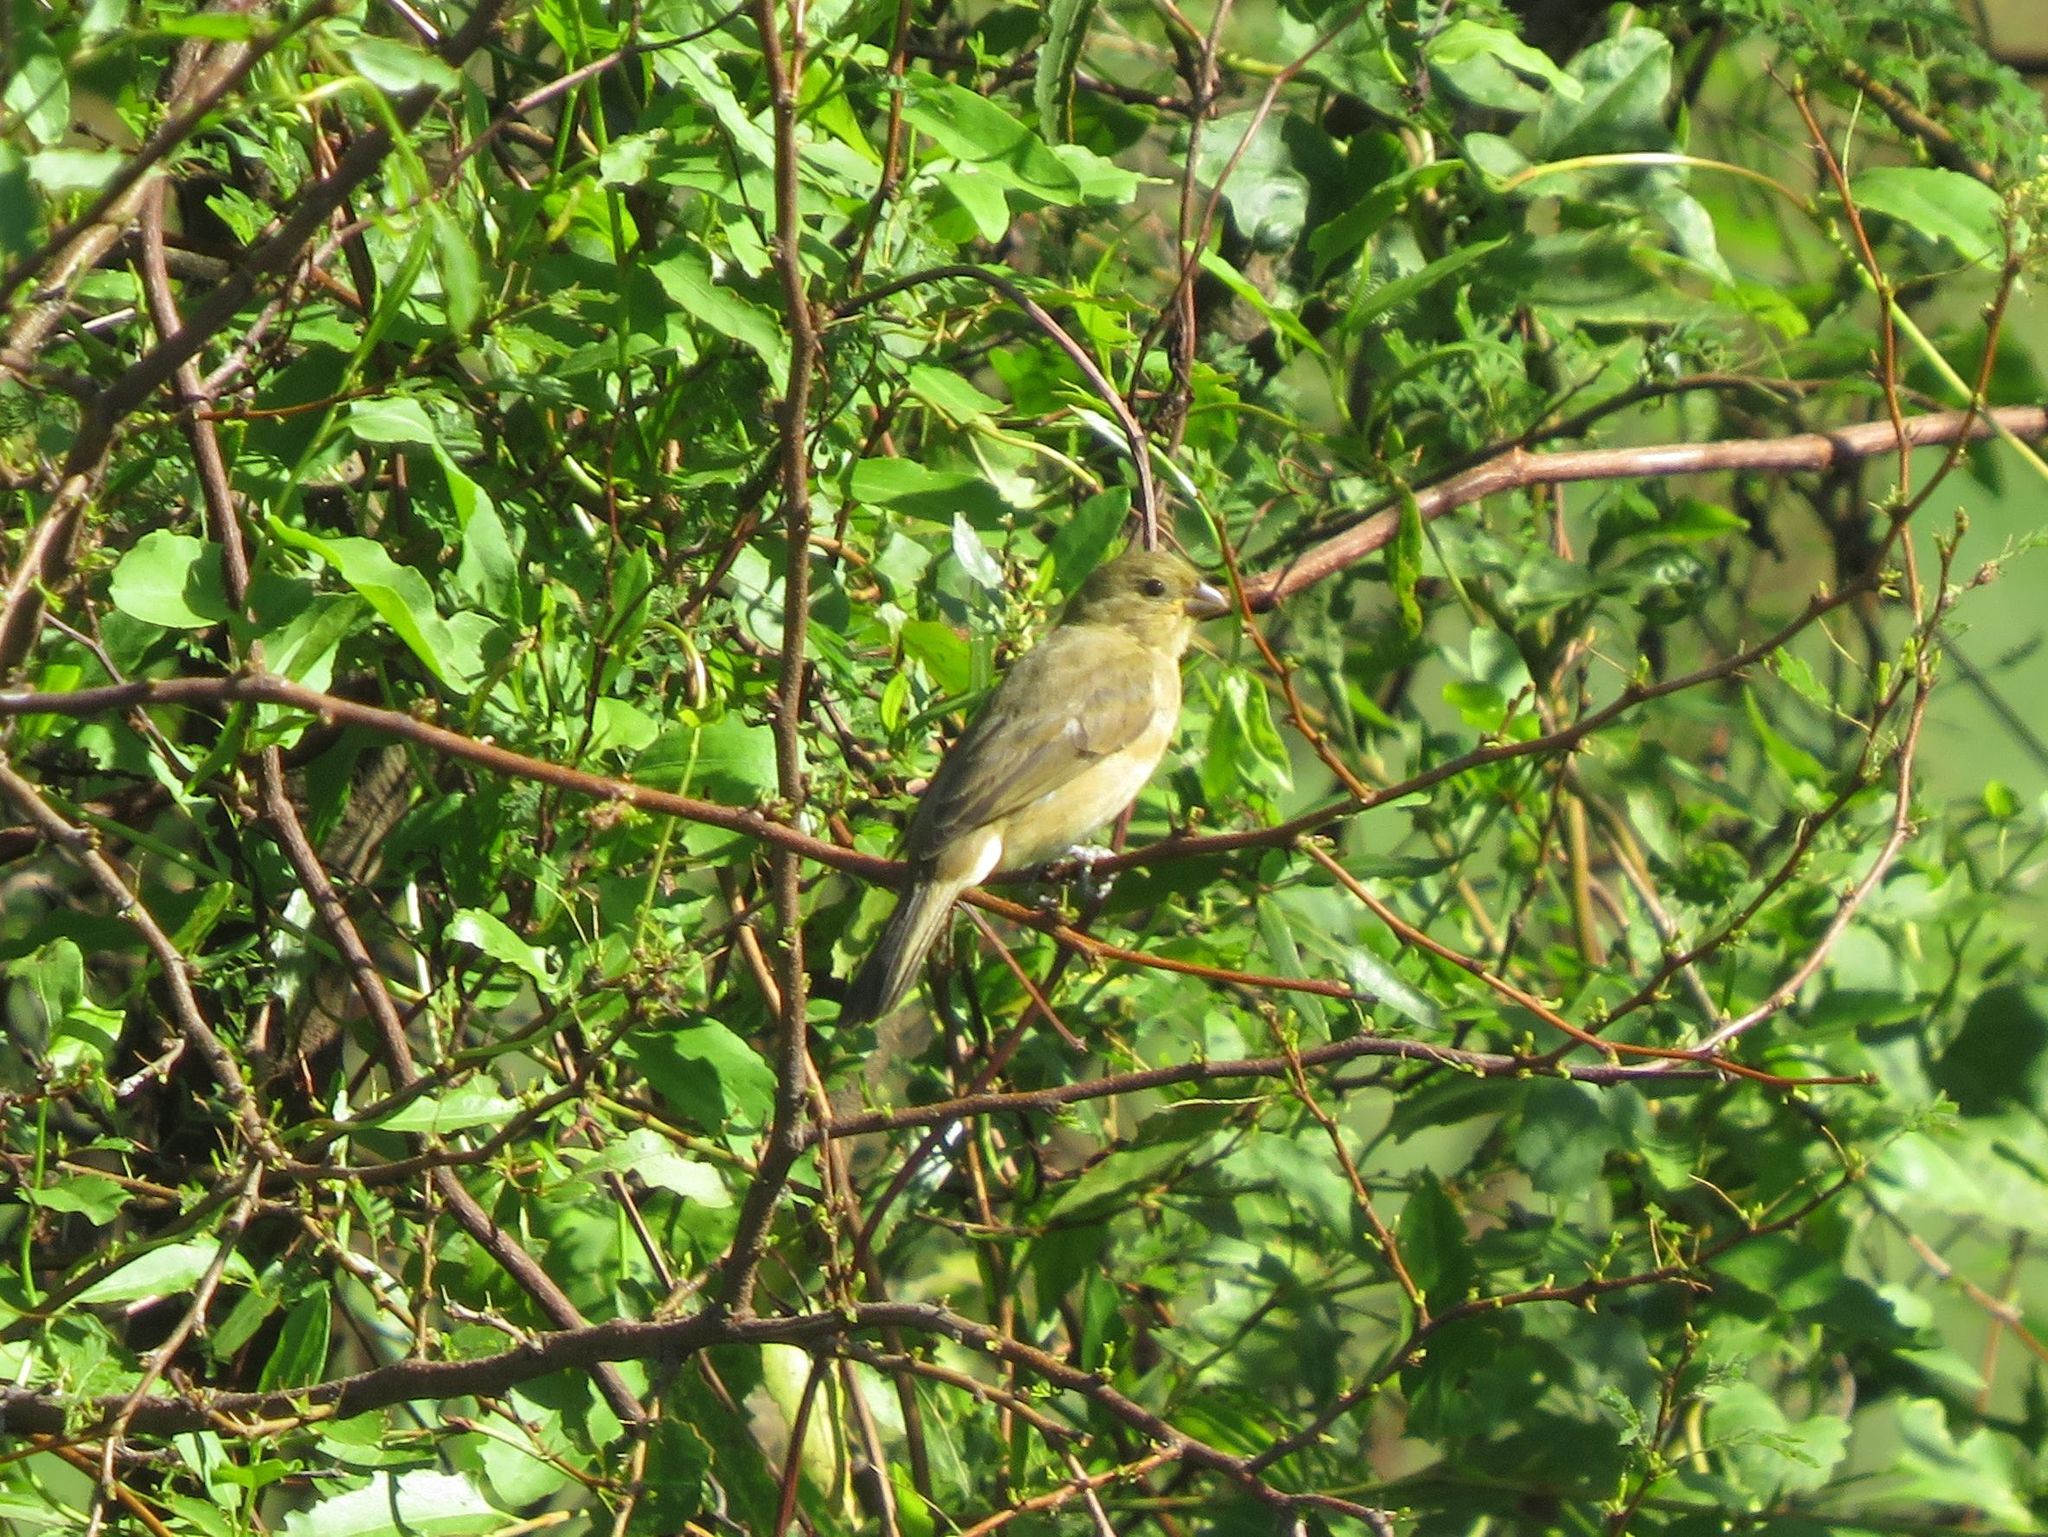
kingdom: Animalia
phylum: Chordata
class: Aves
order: Passeriformes
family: Thraupidae
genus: Sporophila
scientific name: Sporophila caerulescens
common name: Double-collared seedeater
